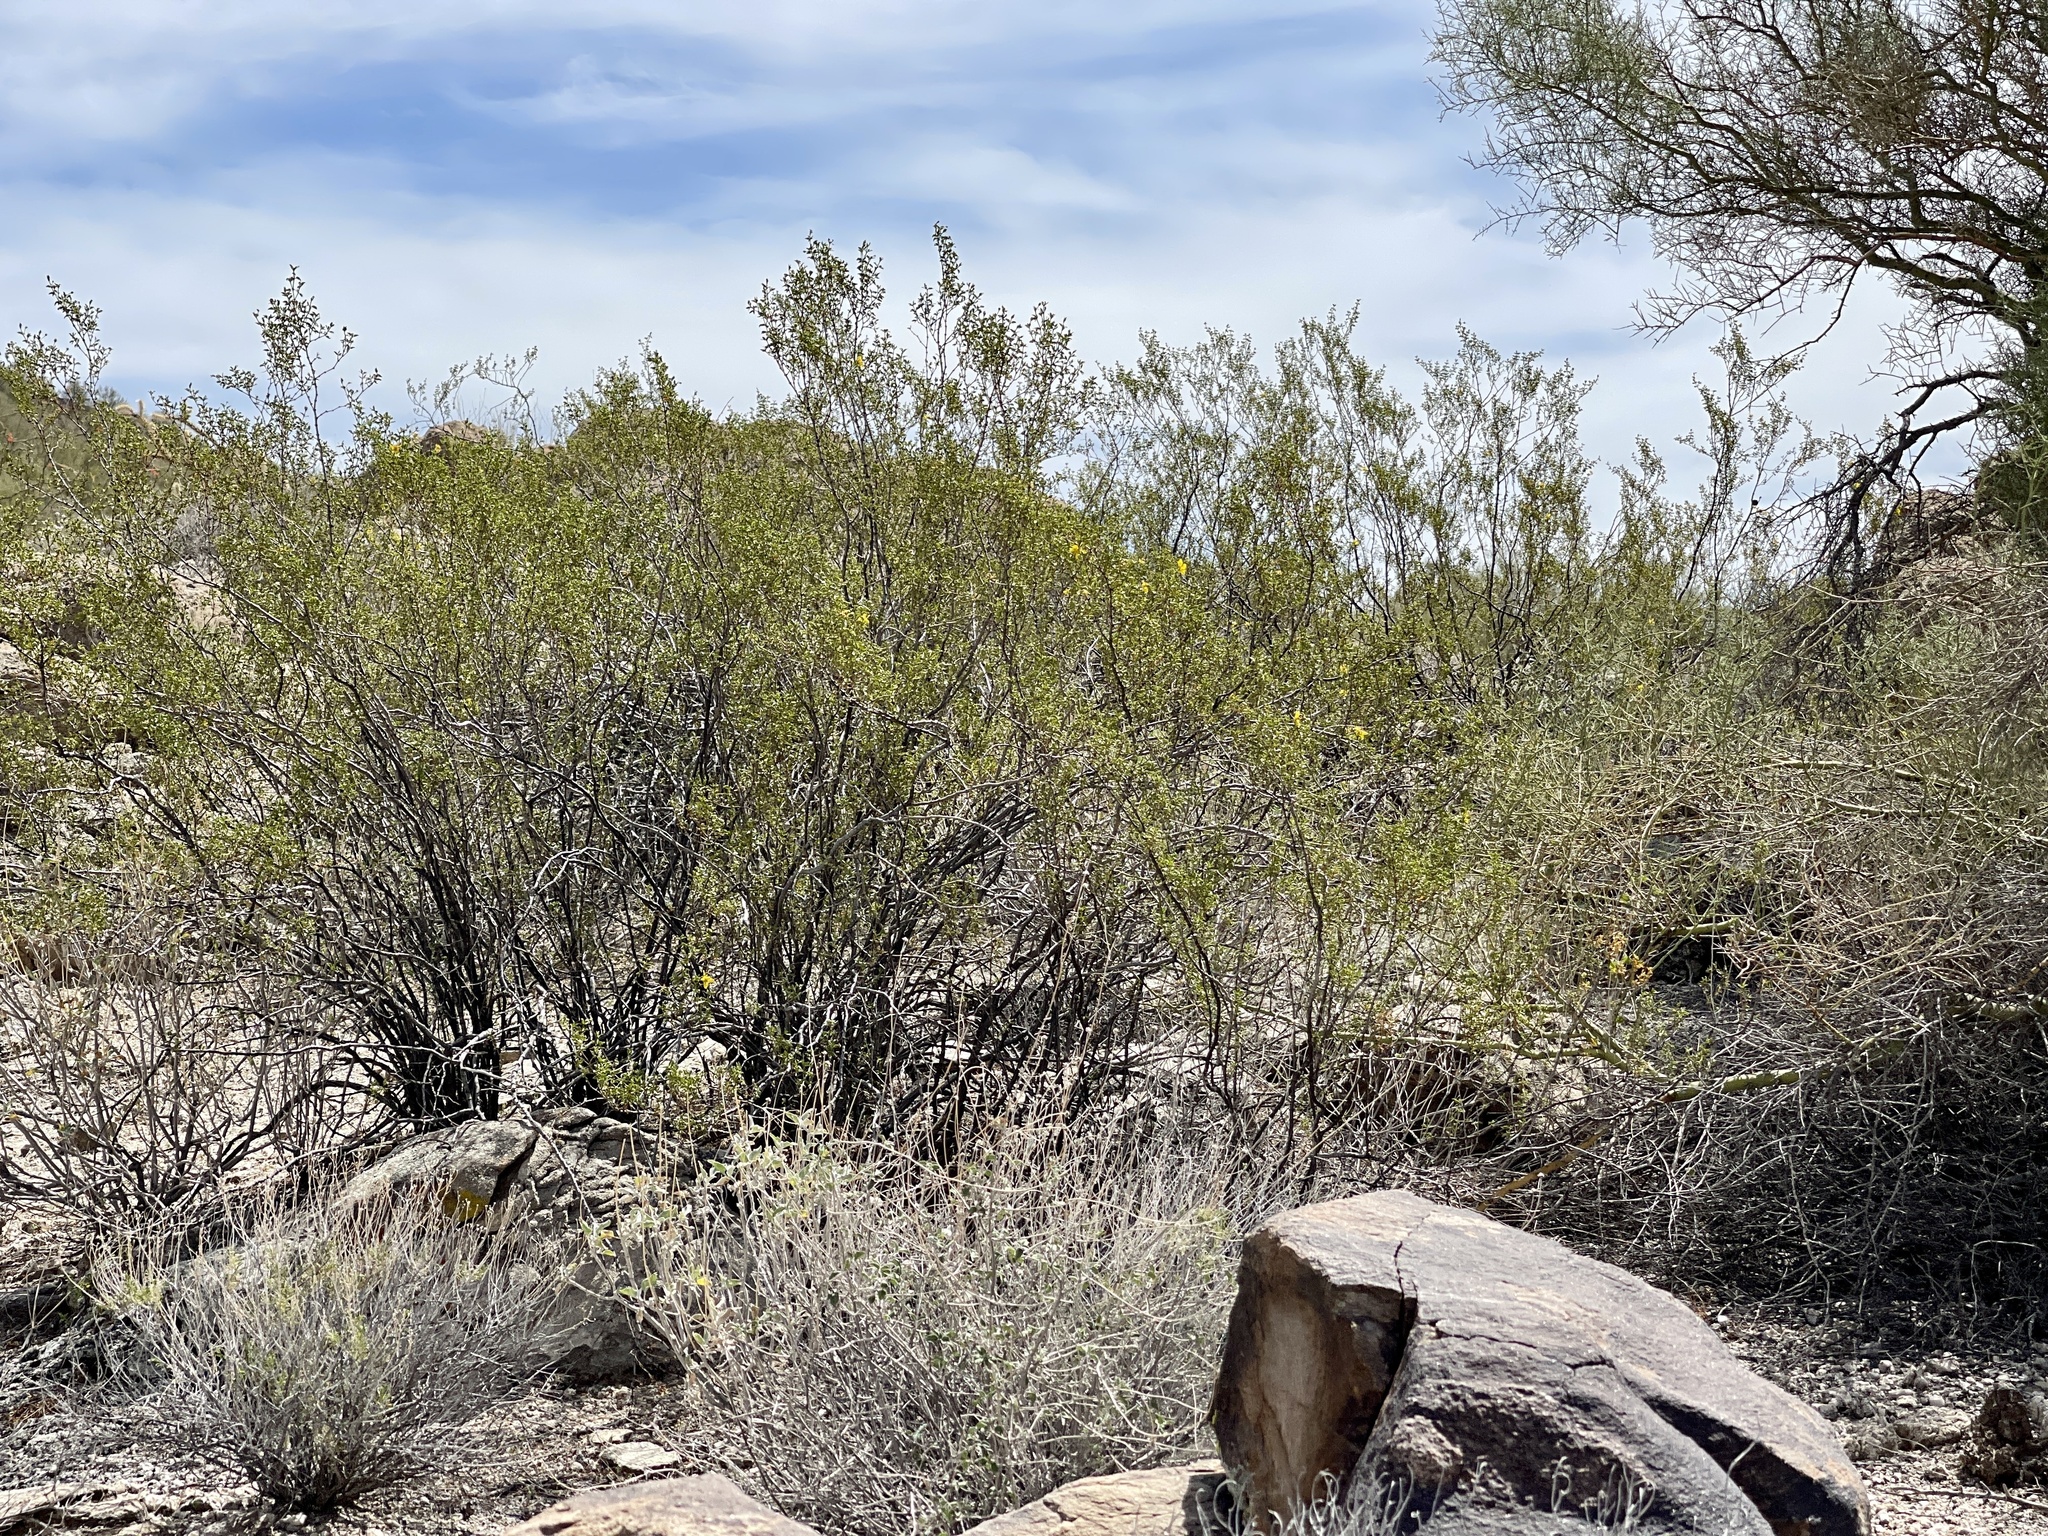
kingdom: Plantae
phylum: Tracheophyta
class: Magnoliopsida
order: Zygophyllales
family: Zygophyllaceae
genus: Larrea
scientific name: Larrea tridentata
